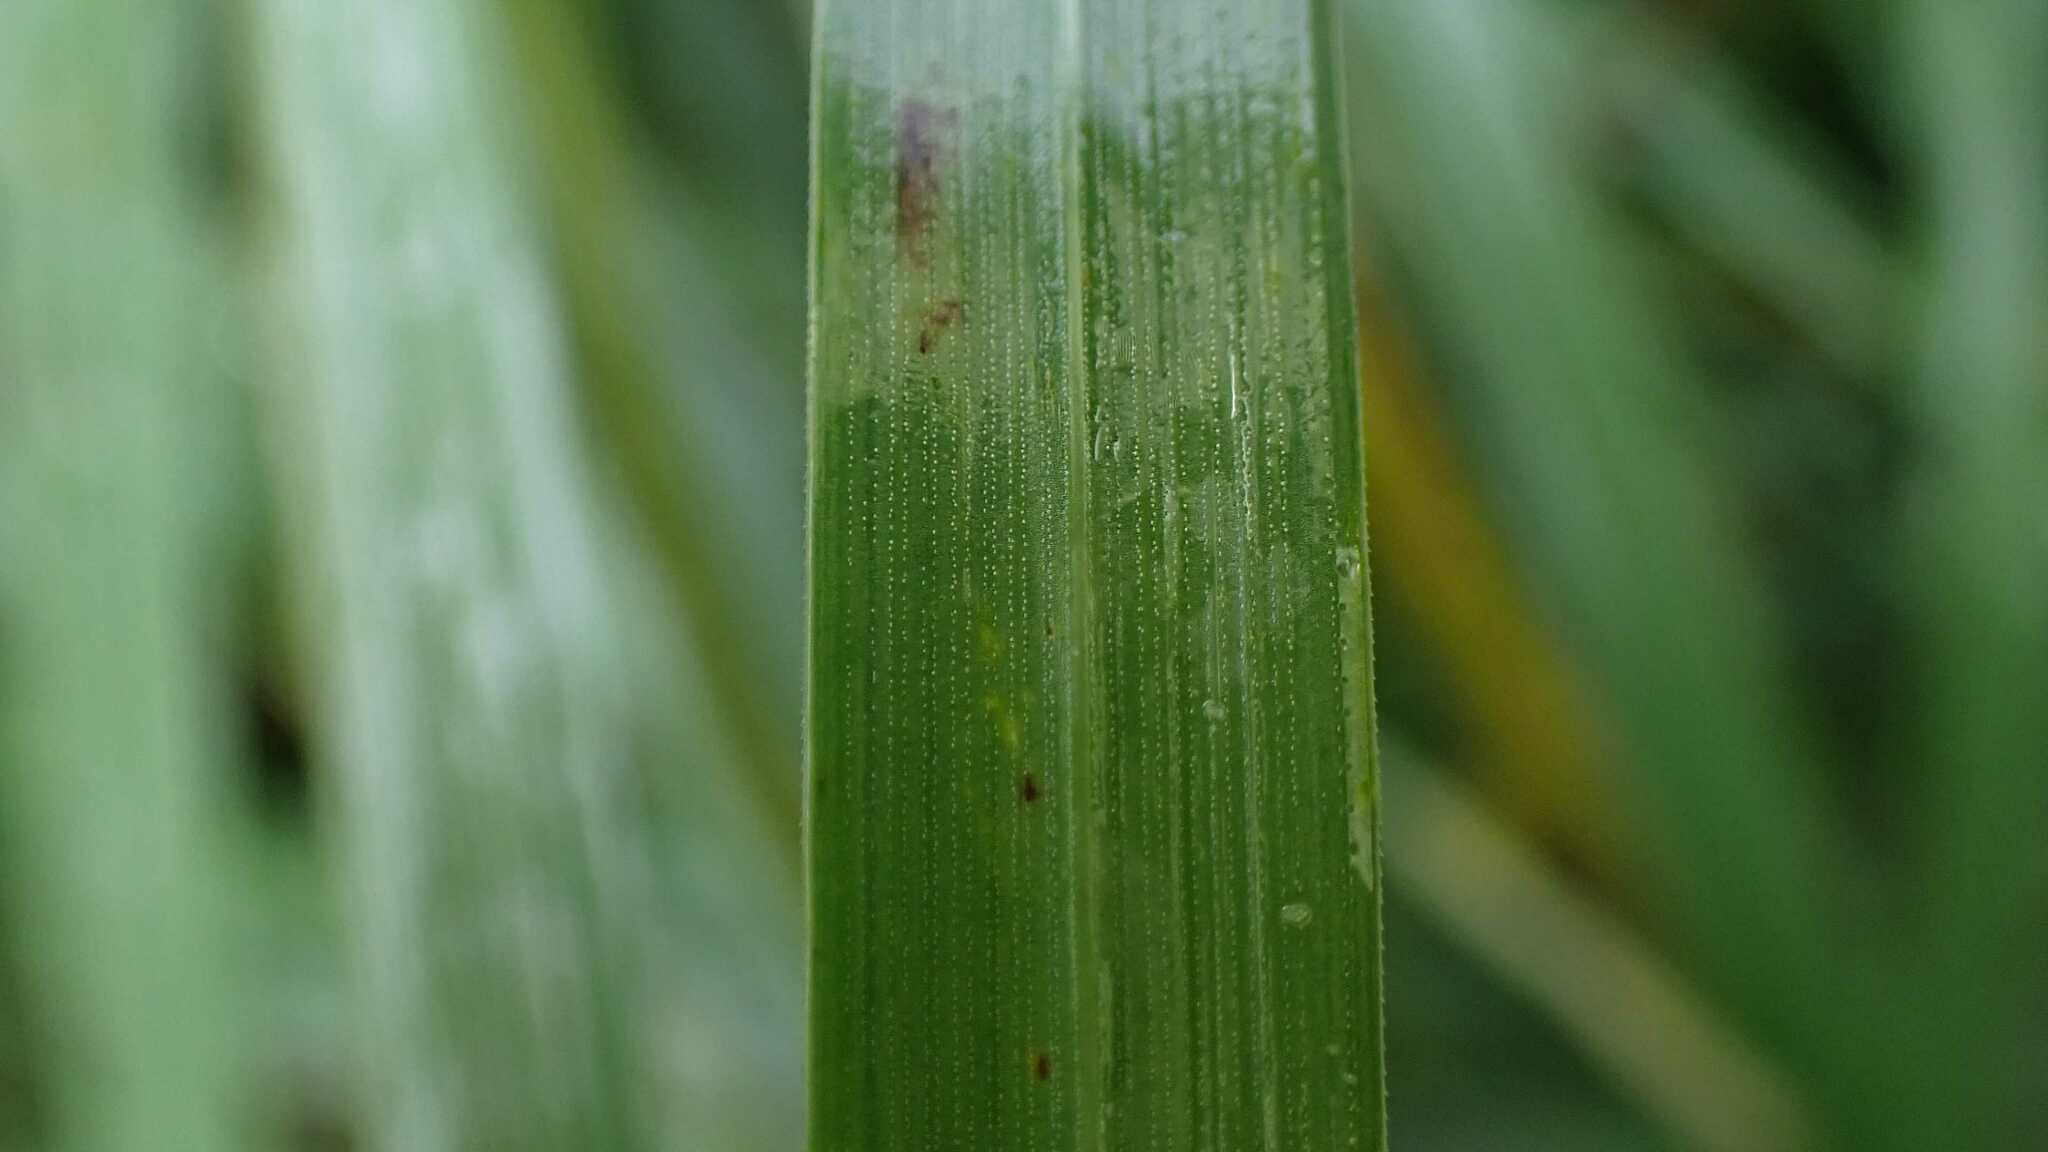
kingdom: Plantae
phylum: Tracheophyta
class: Liliopsida
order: Poales
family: Poaceae
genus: Lolium
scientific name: Lolium arundinaceum
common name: Reed fescue
